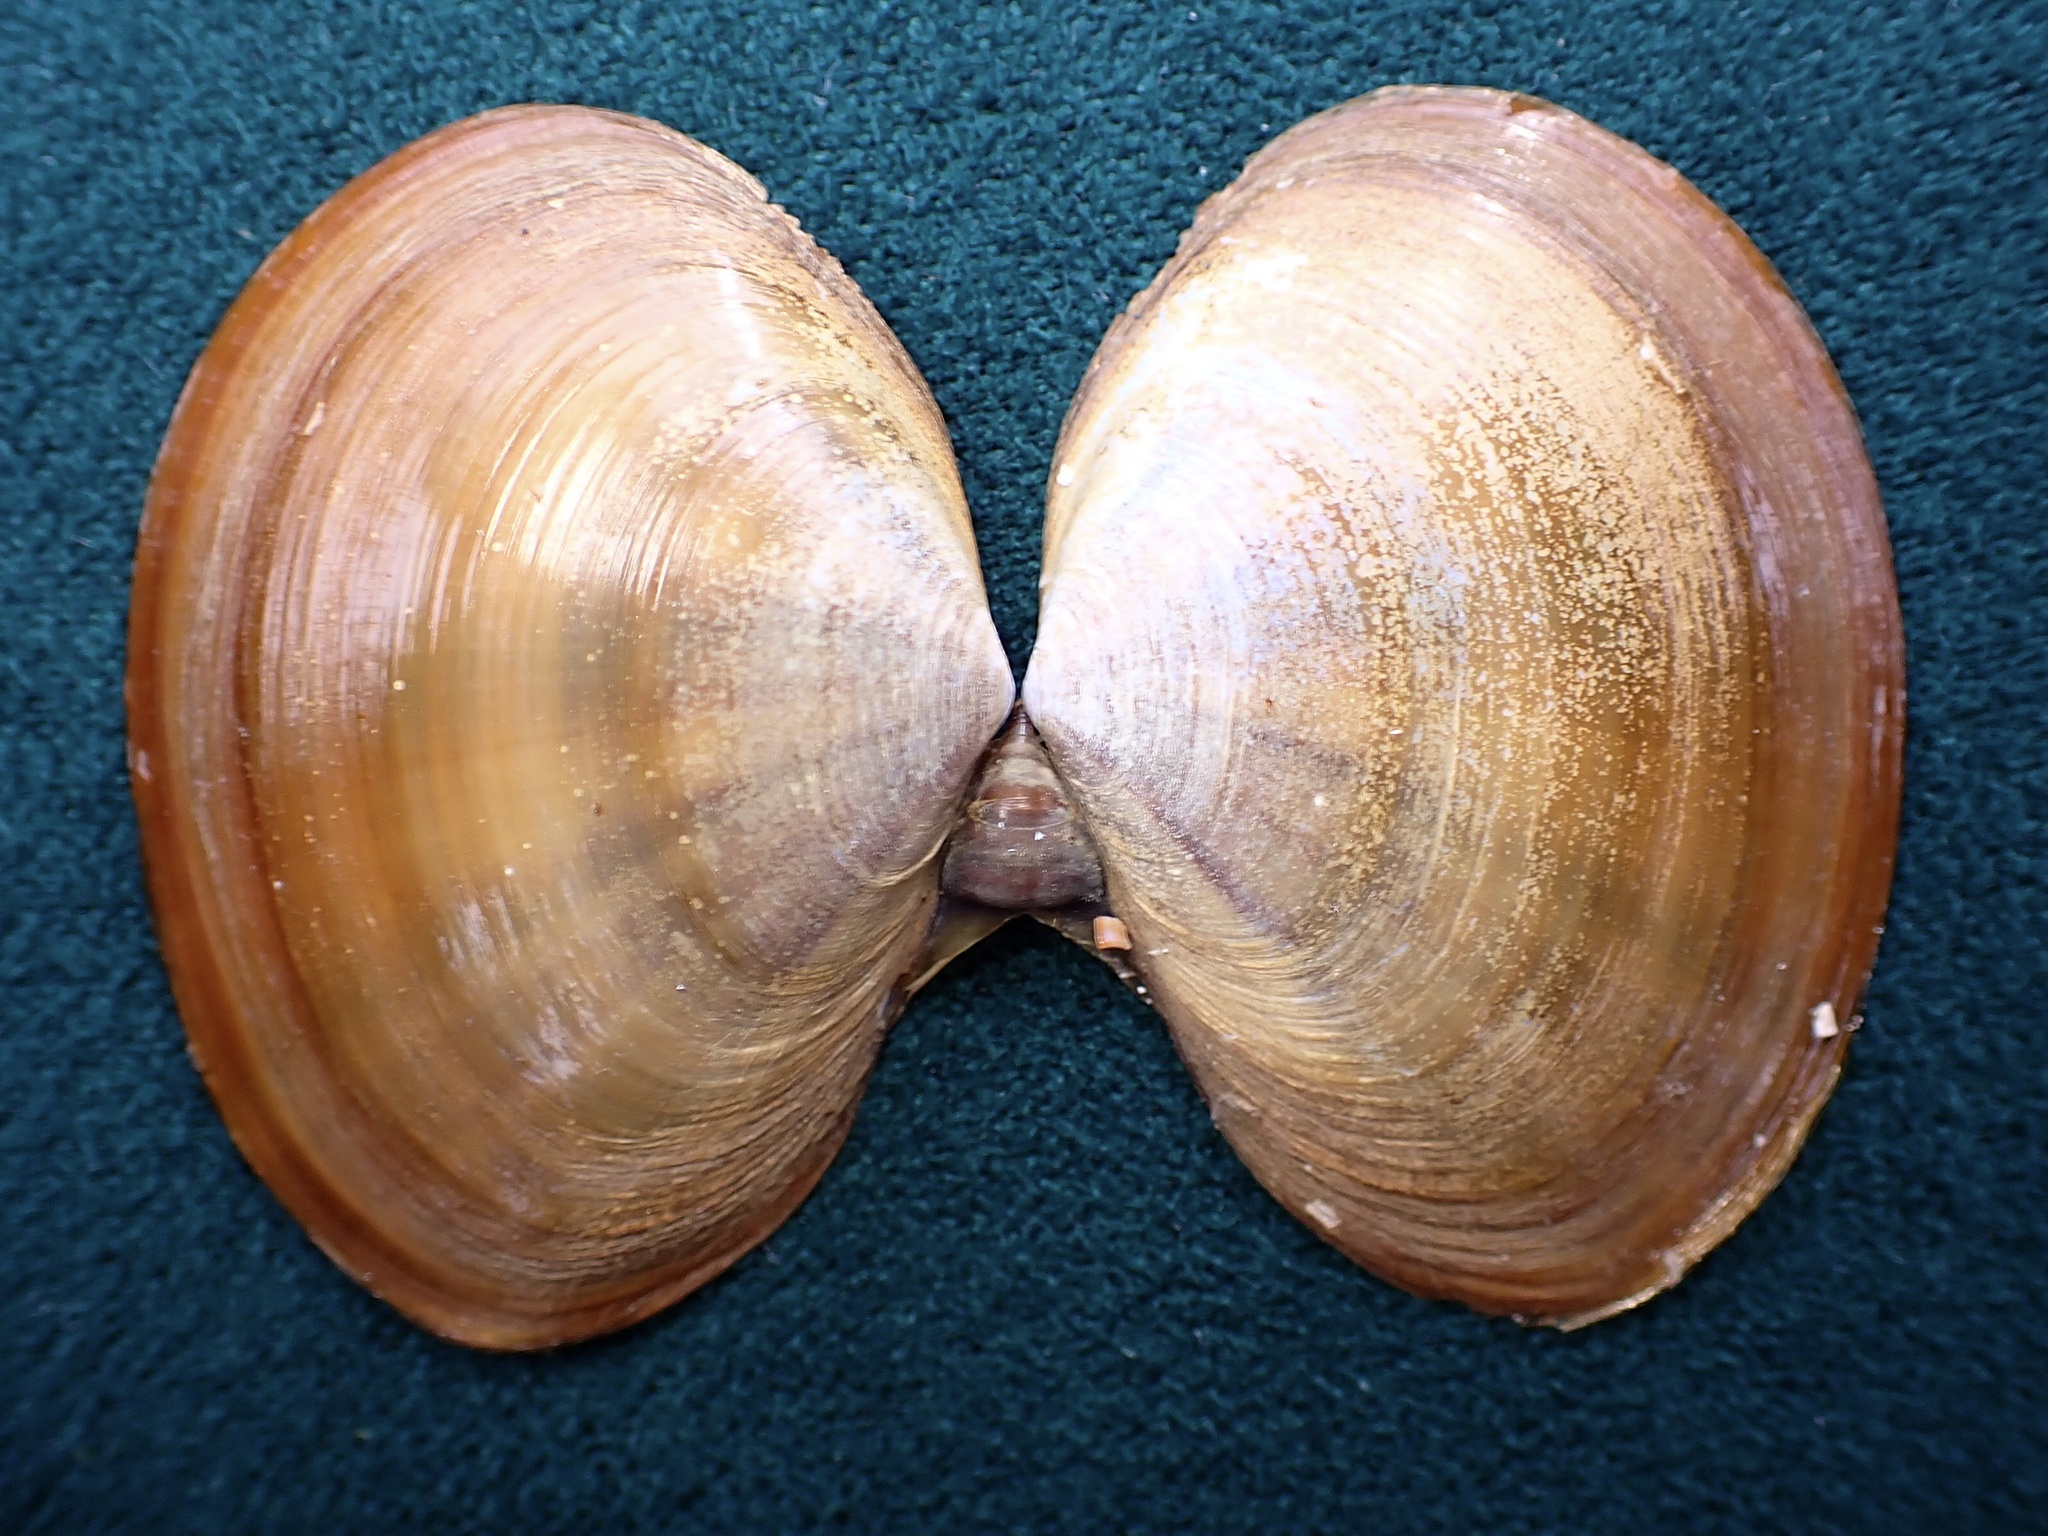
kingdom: Animalia
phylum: Mollusca
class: Bivalvia
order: Cardiida
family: Psammobiidae
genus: Nuttallia
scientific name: Nuttallia nuttallii
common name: California mahogany-clam
